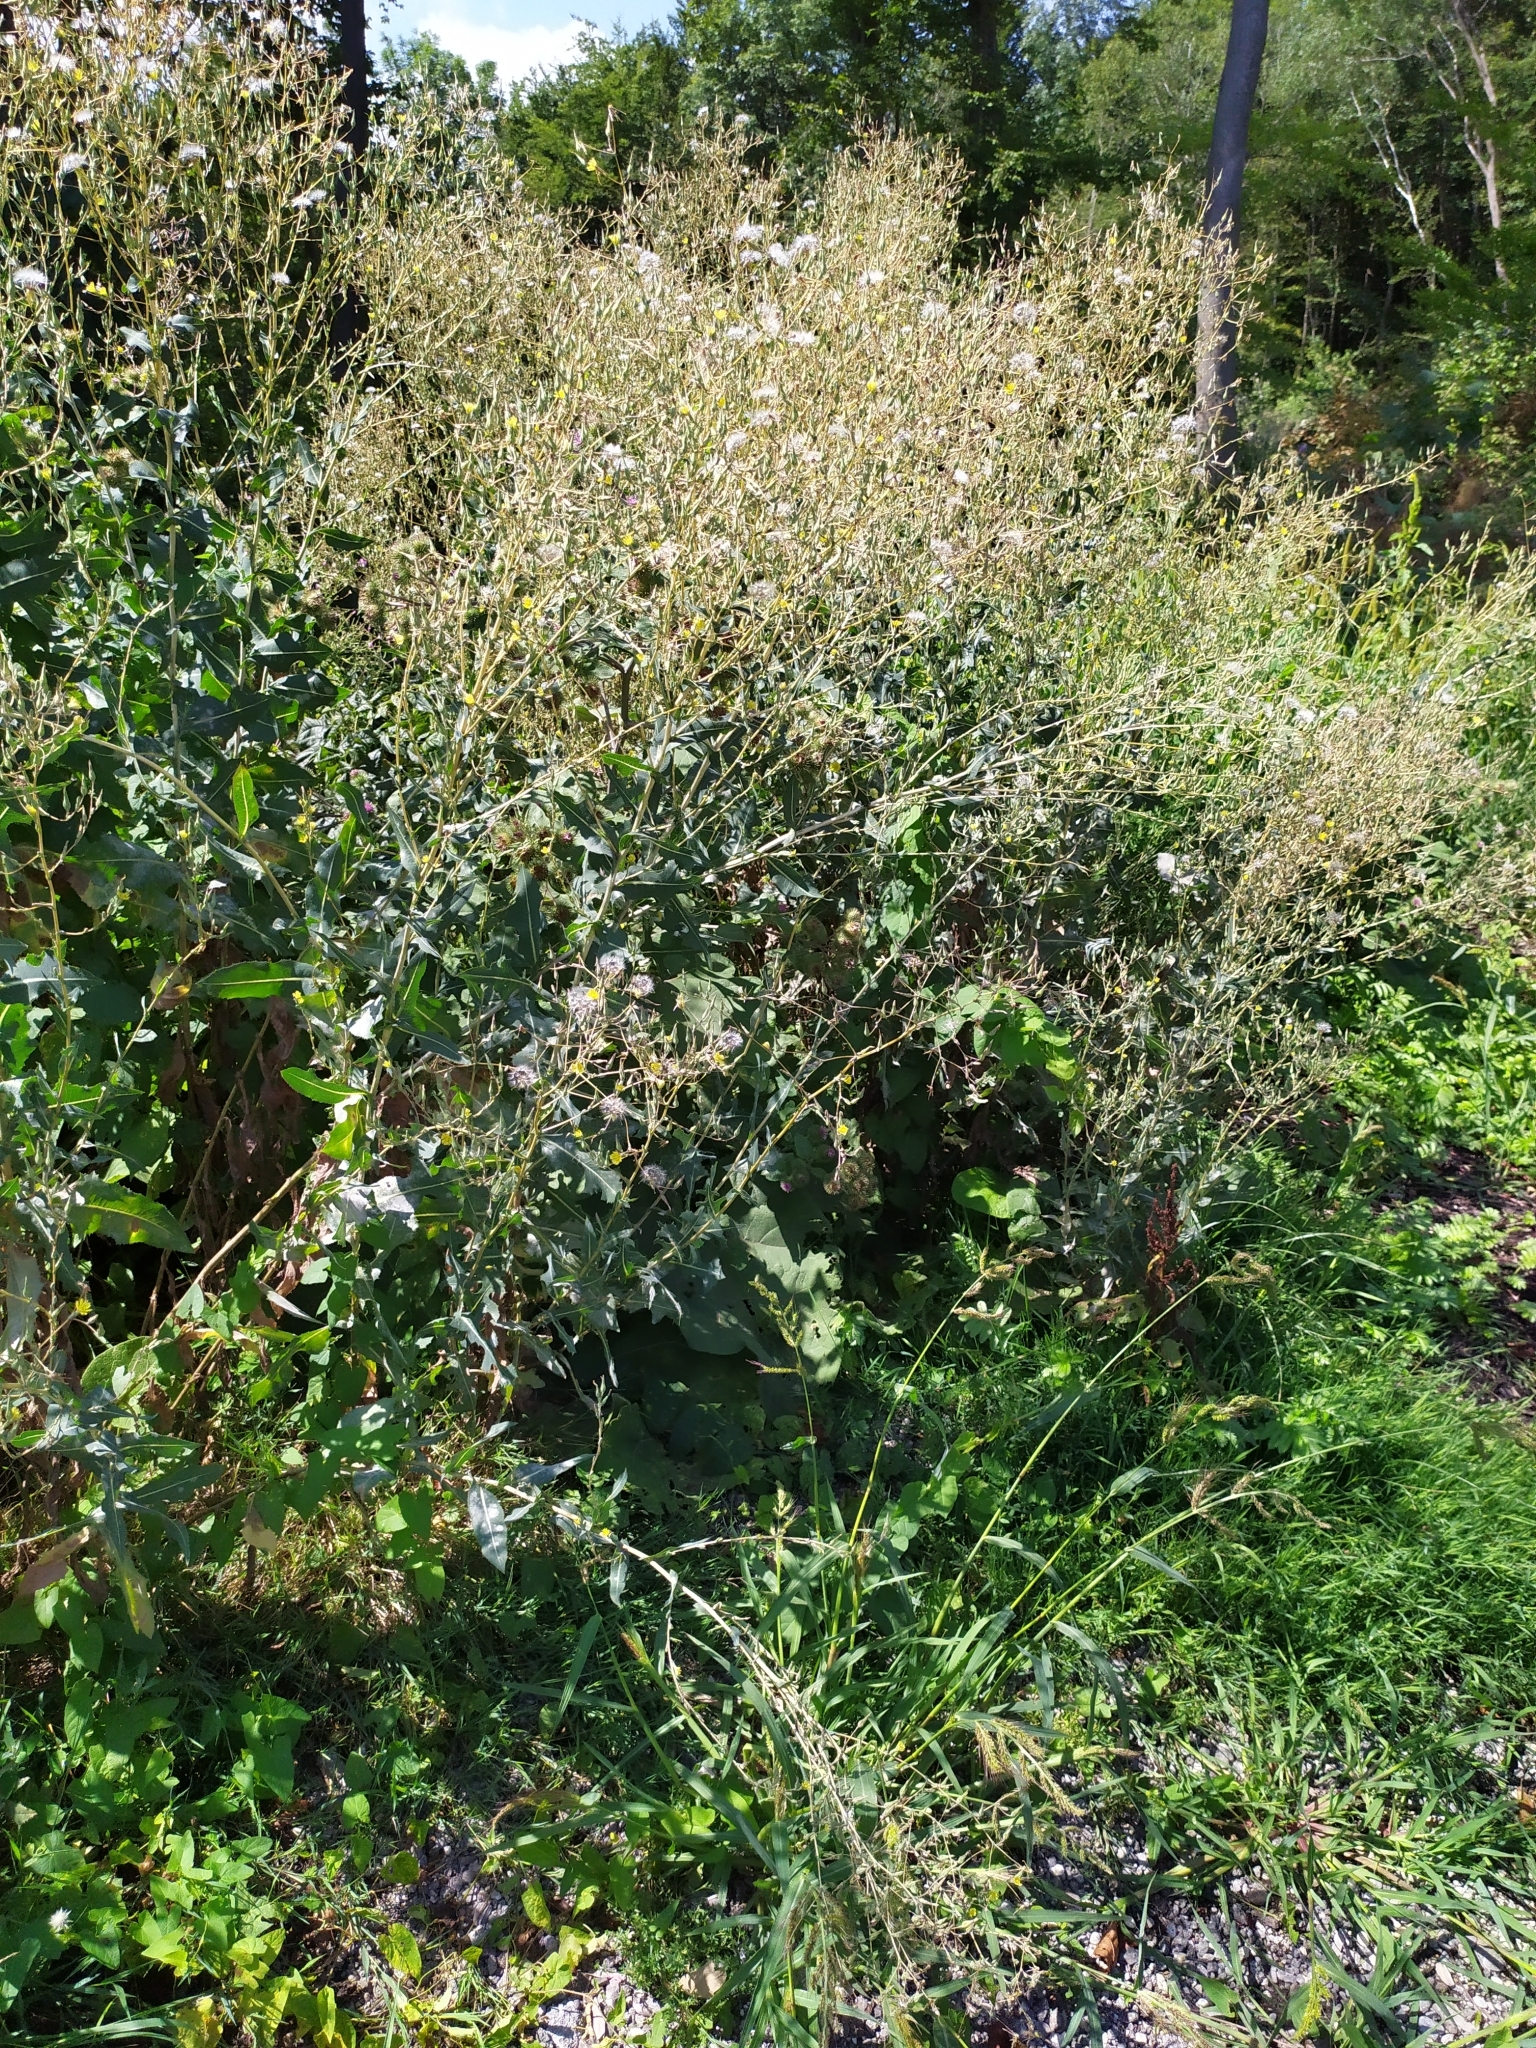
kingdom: Plantae
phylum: Tracheophyta
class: Magnoliopsida
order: Asterales
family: Asteraceae
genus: Lactuca
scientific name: Lactuca serriola
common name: Prickly lettuce
